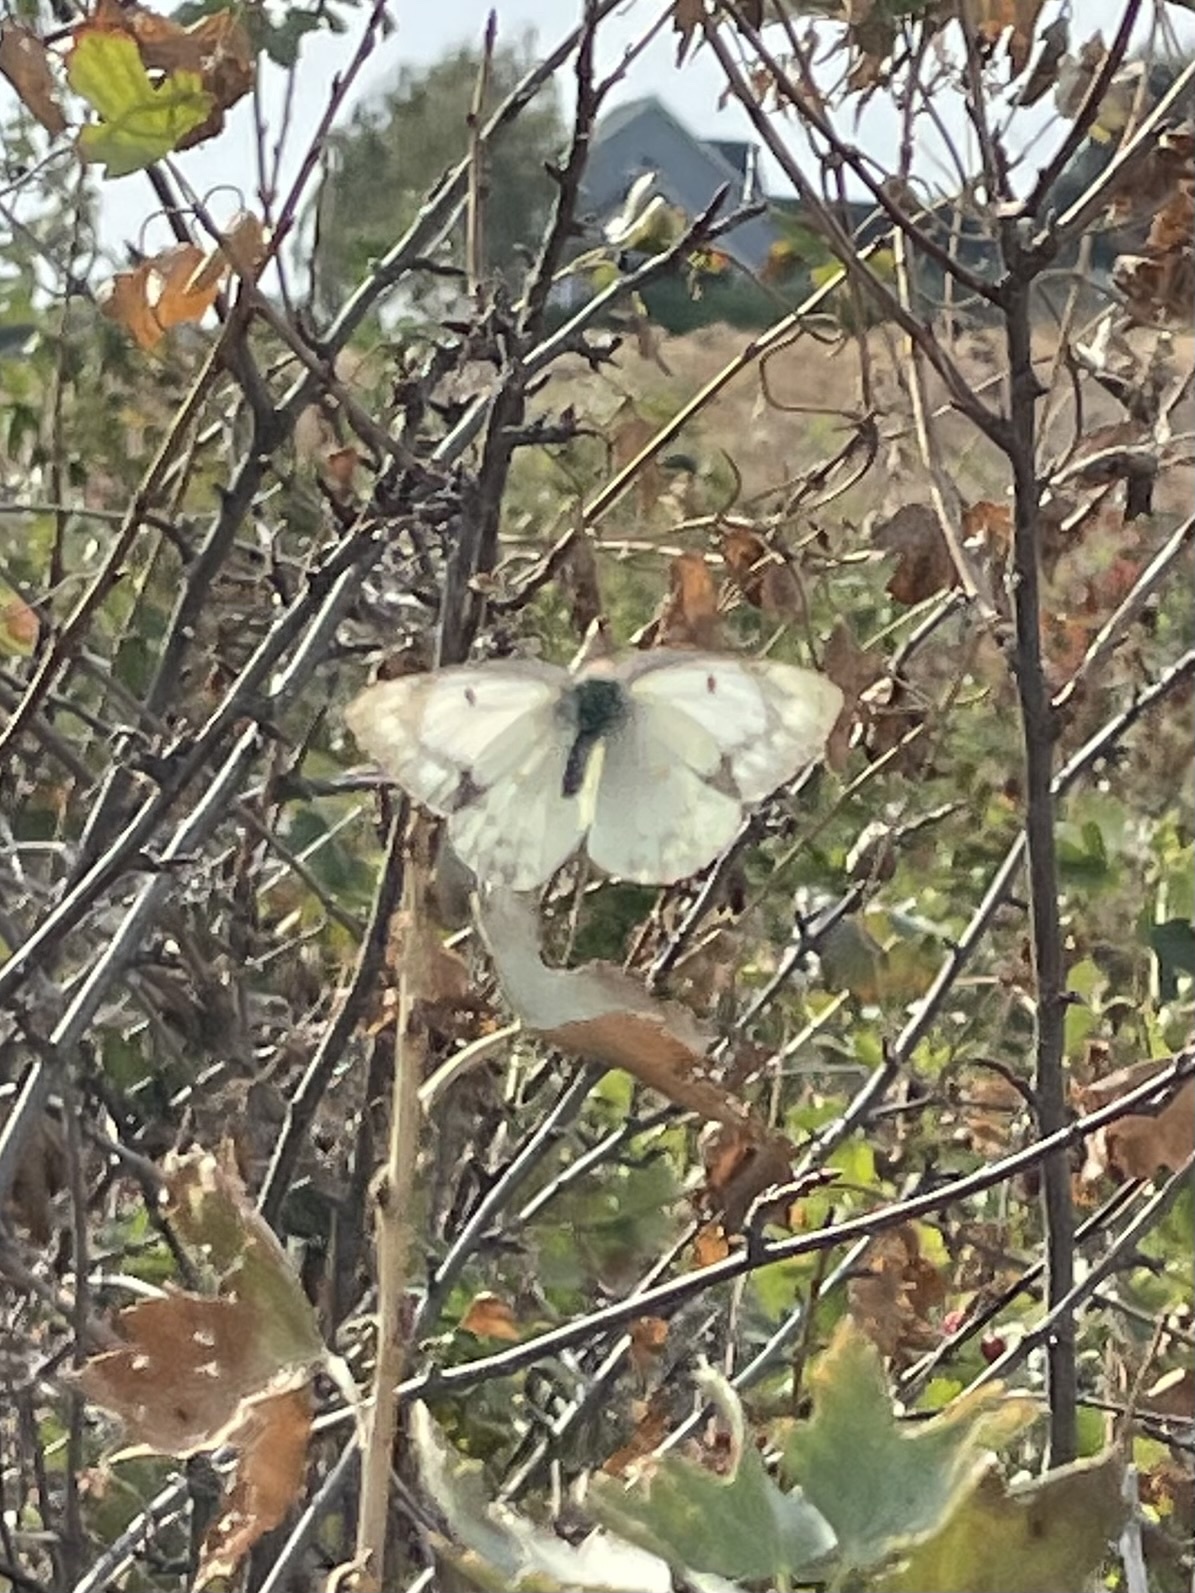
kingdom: Animalia
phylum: Arthropoda
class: Insecta
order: Lepidoptera
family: Pieridae
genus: Colias
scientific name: Colias eurytheme
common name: Alfalfa butterfly
